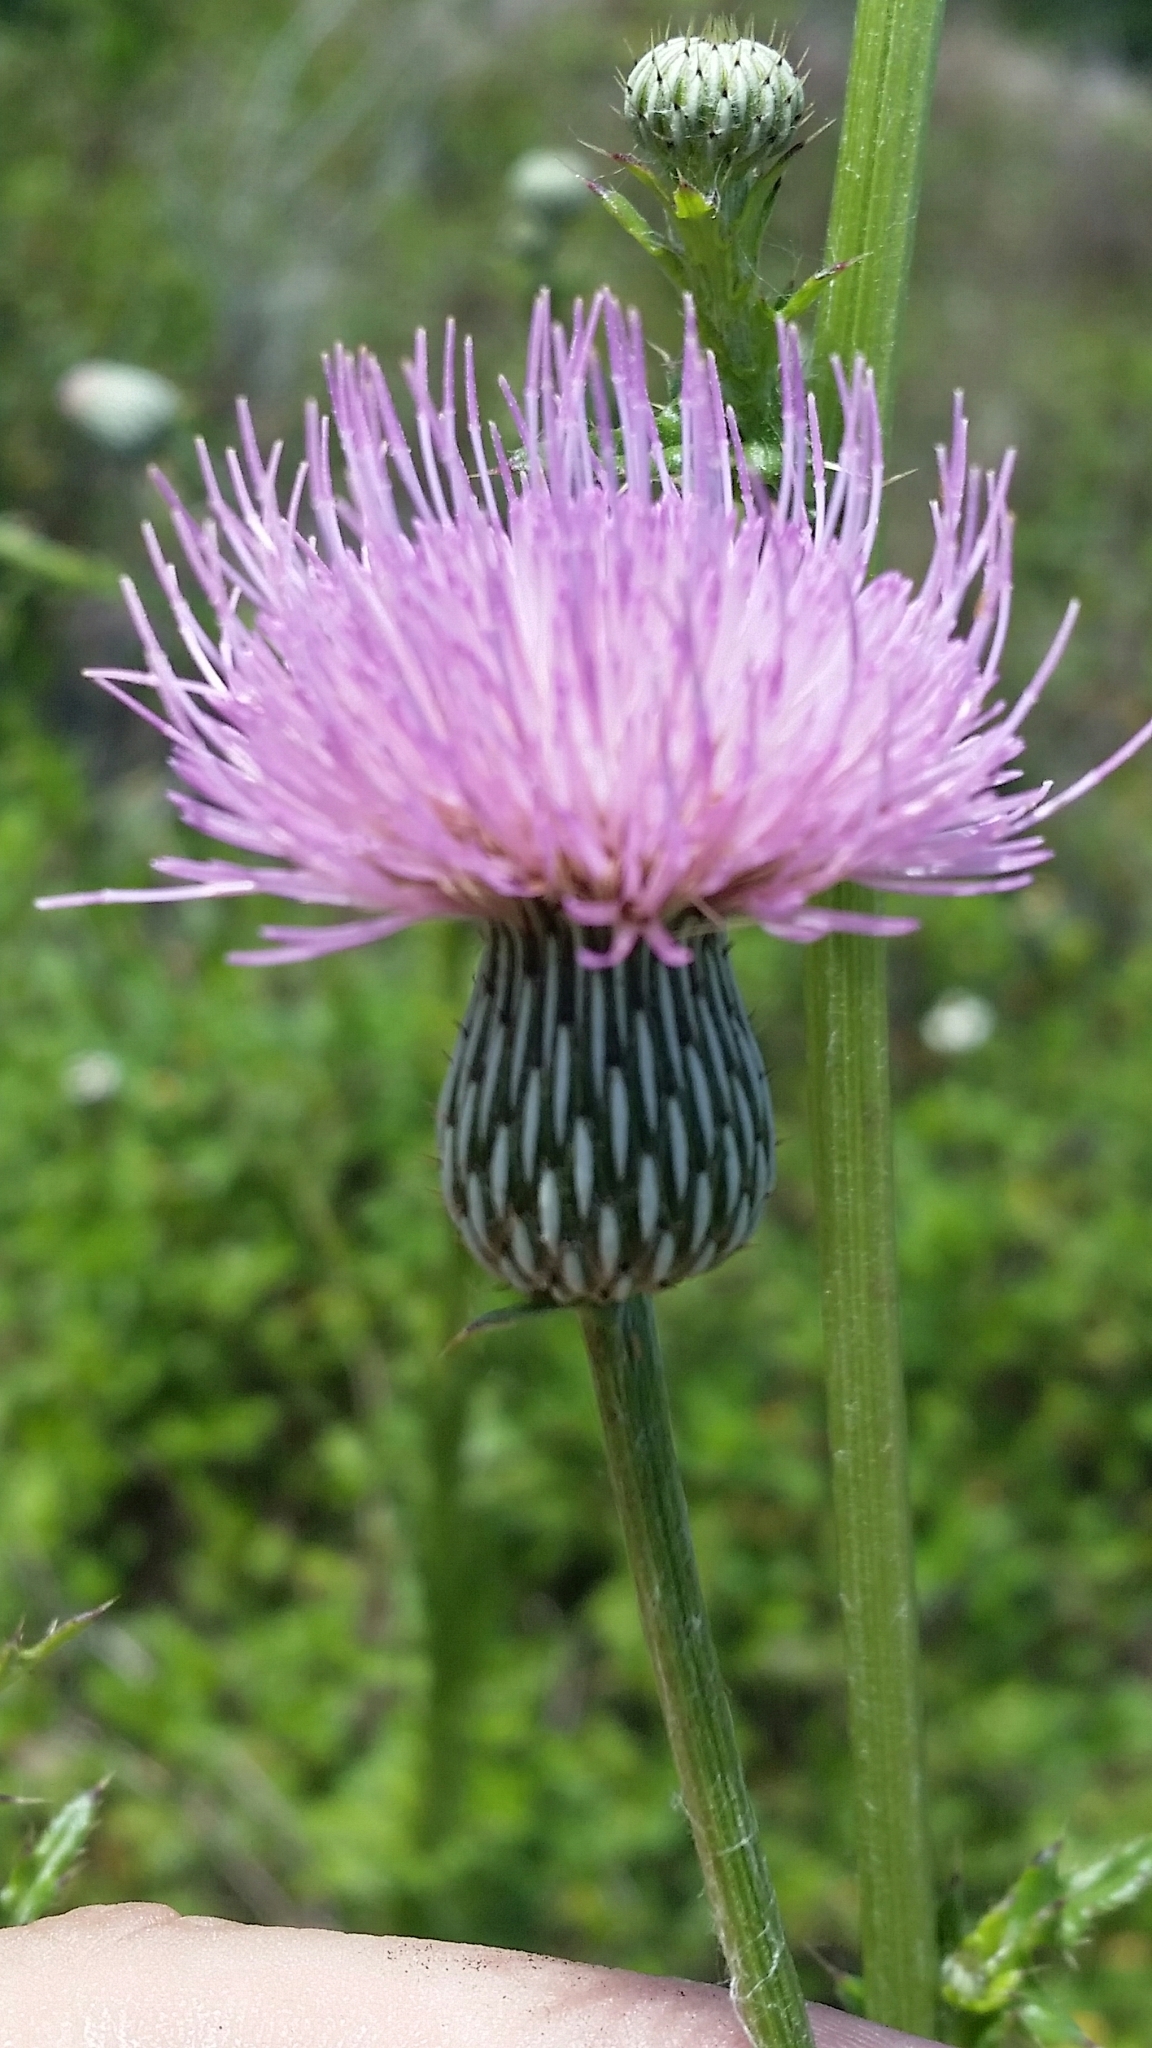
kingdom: Plantae
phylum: Tracheophyta
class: Magnoliopsida
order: Asterales
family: Asteraceae
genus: Cirsium
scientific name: Cirsium nuttalii
